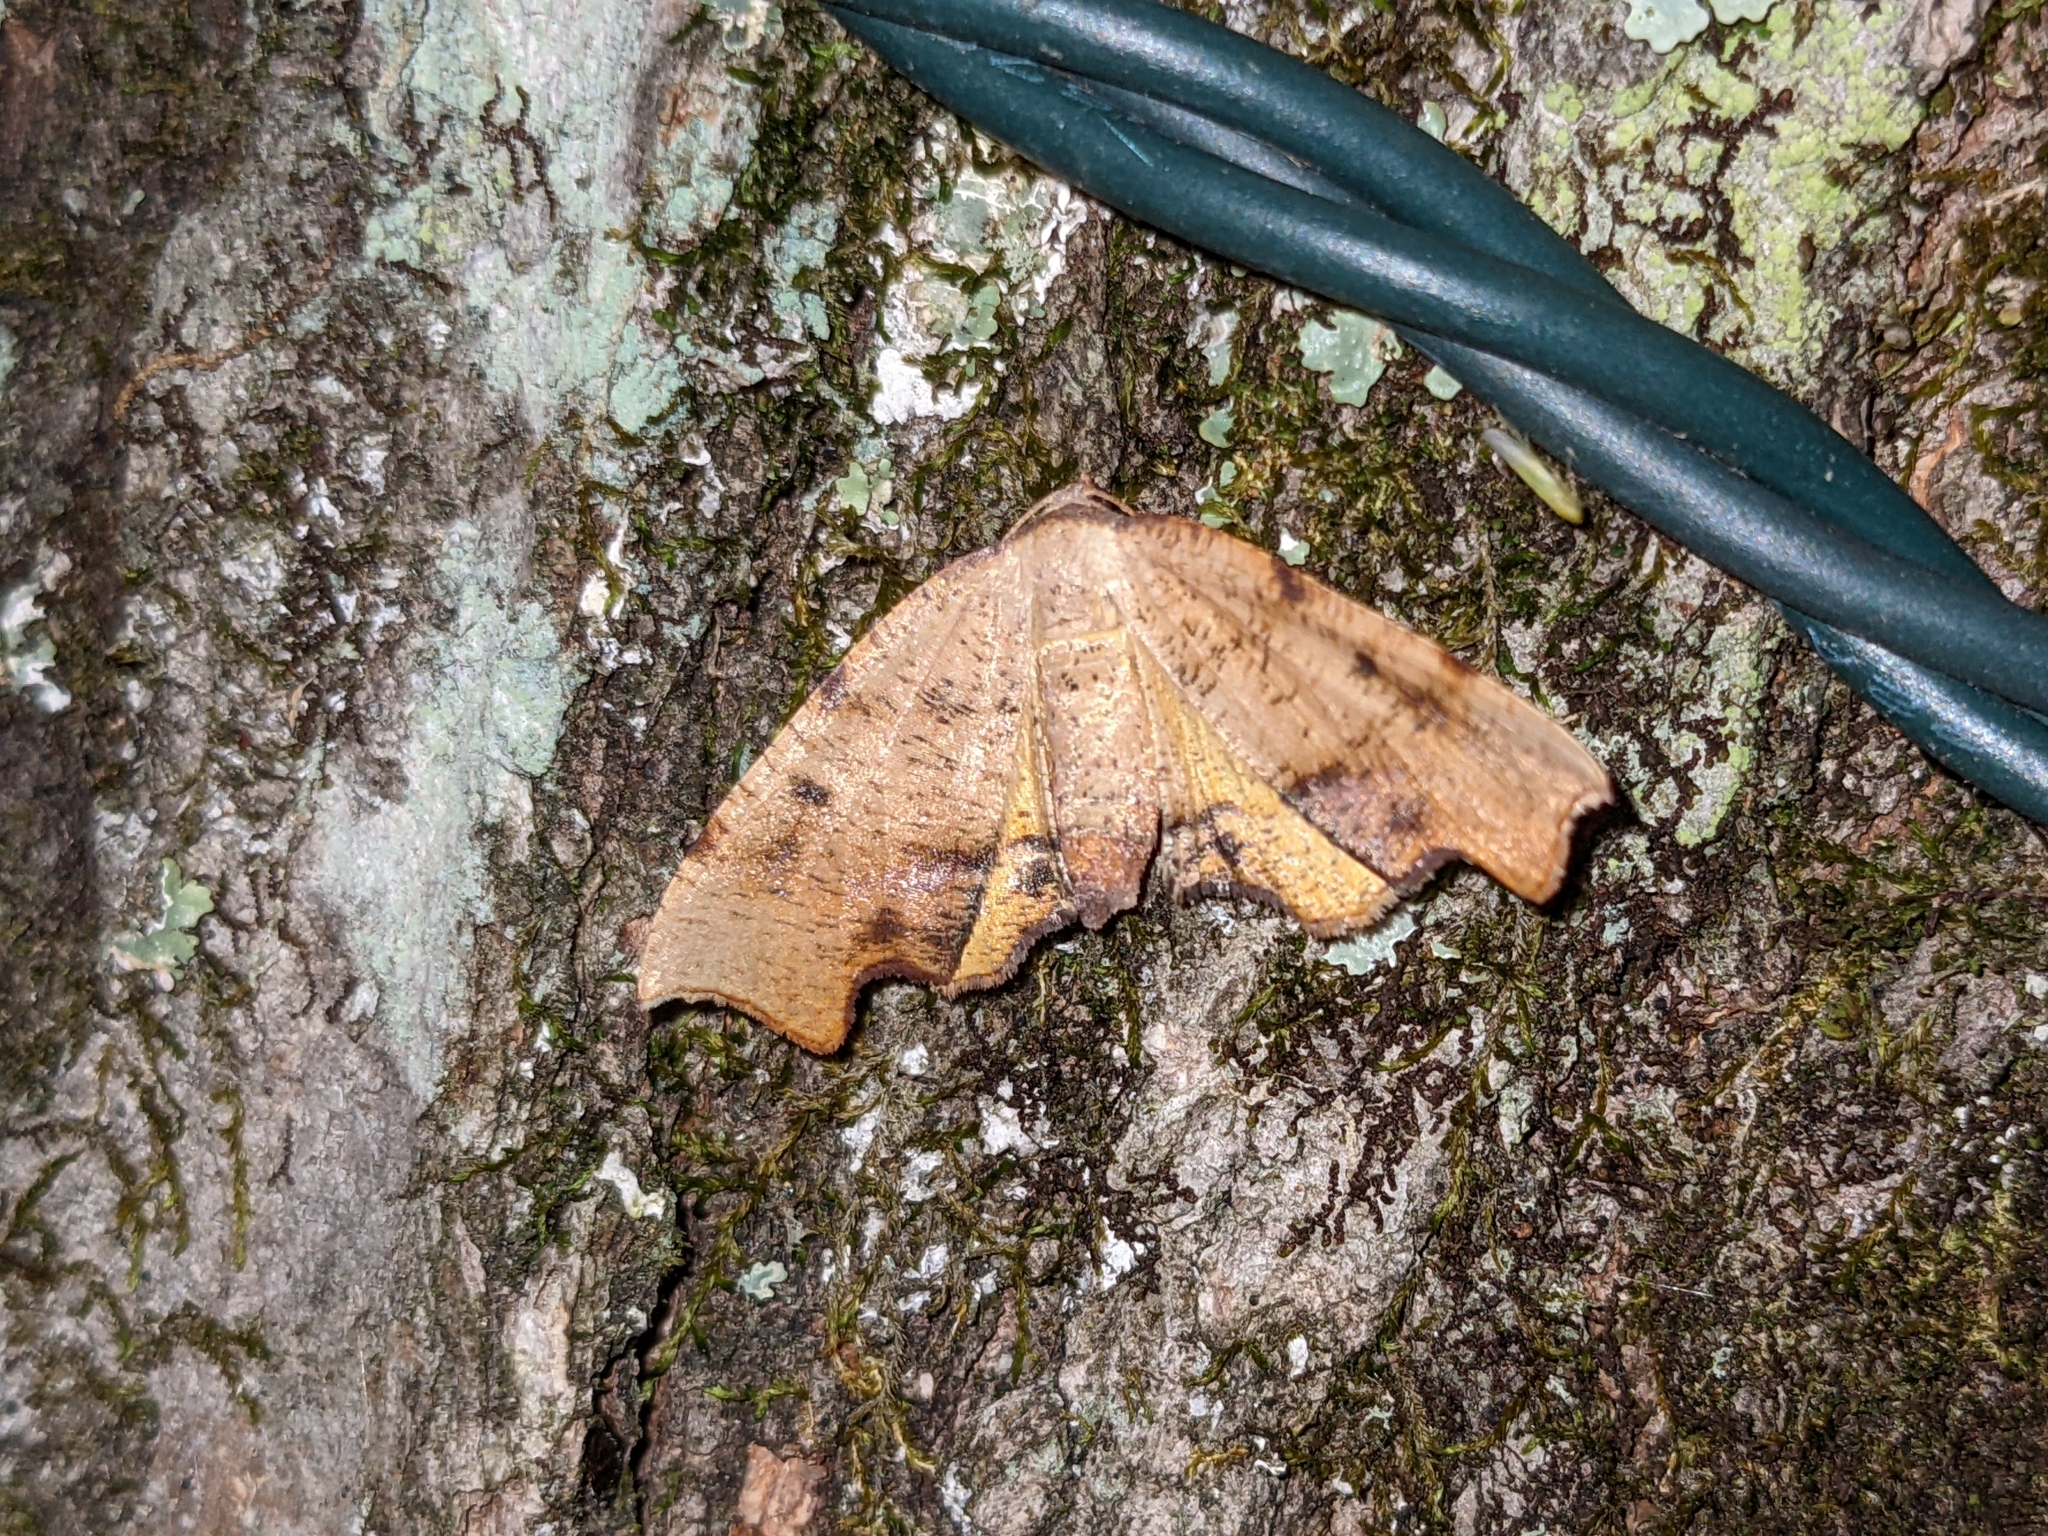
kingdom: Animalia
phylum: Arthropoda
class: Insecta
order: Lepidoptera
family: Geometridae
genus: Plagodis
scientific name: Plagodis fervidaria
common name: Fervid plagodis
